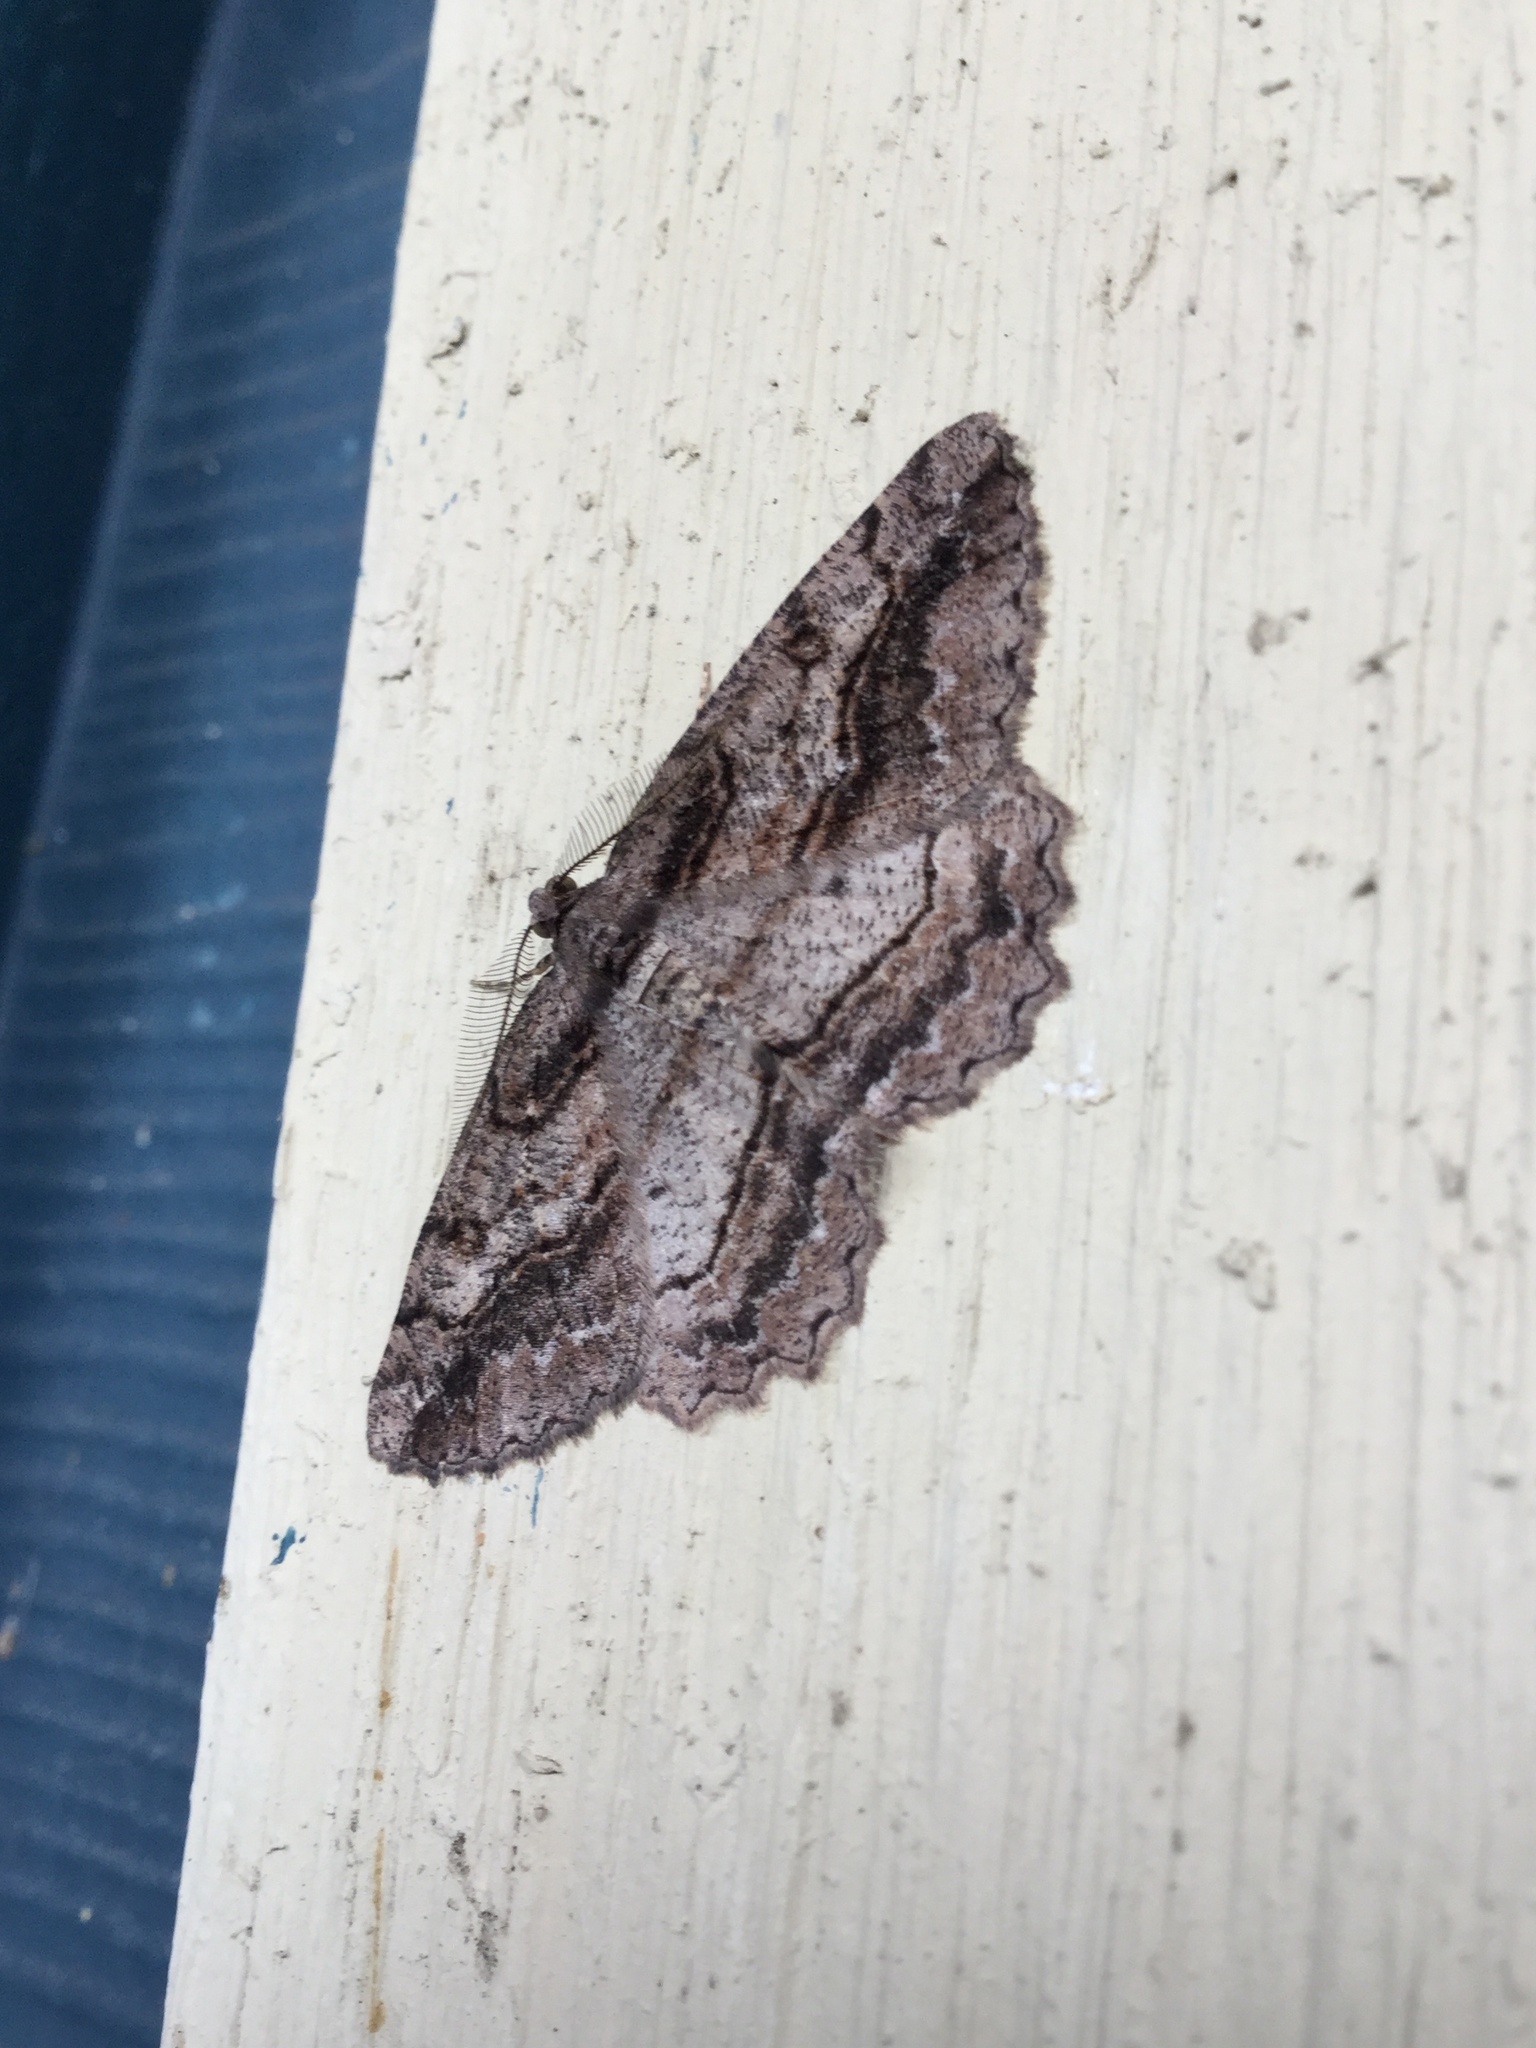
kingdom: Animalia
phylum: Arthropoda
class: Insecta
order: Lepidoptera
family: Geometridae
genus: Neoalcis
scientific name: Neoalcis californiaria
